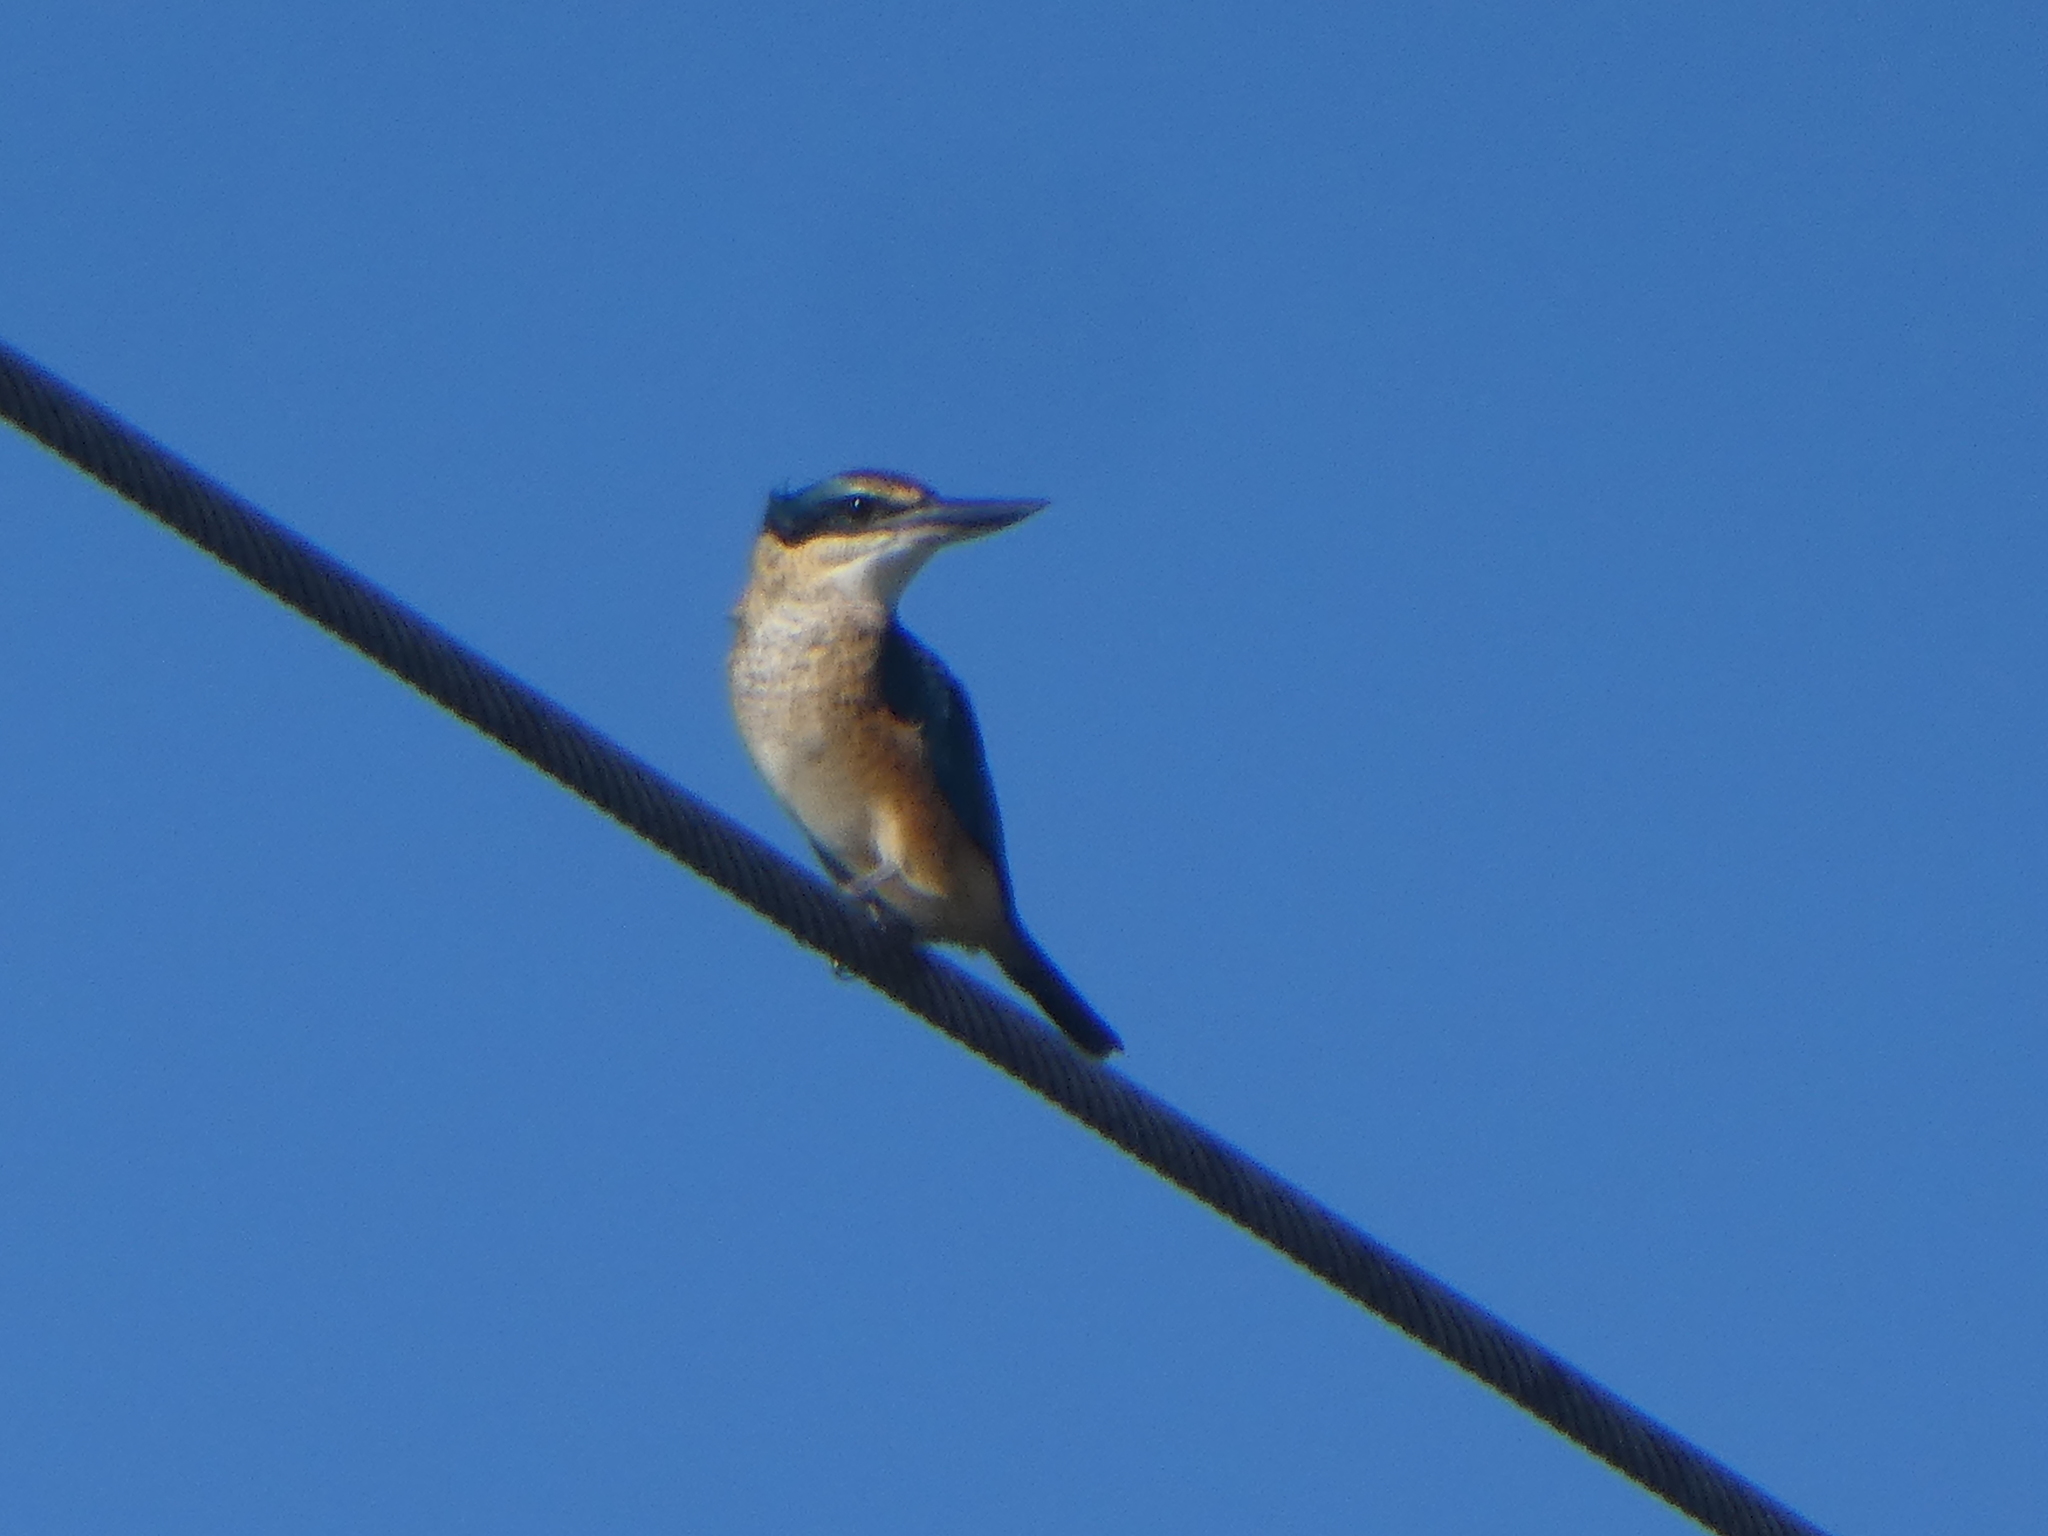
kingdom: Animalia
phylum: Chordata
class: Aves
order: Coraciiformes
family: Alcedinidae
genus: Todiramphus
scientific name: Todiramphus sanctus
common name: Sacred kingfisher
